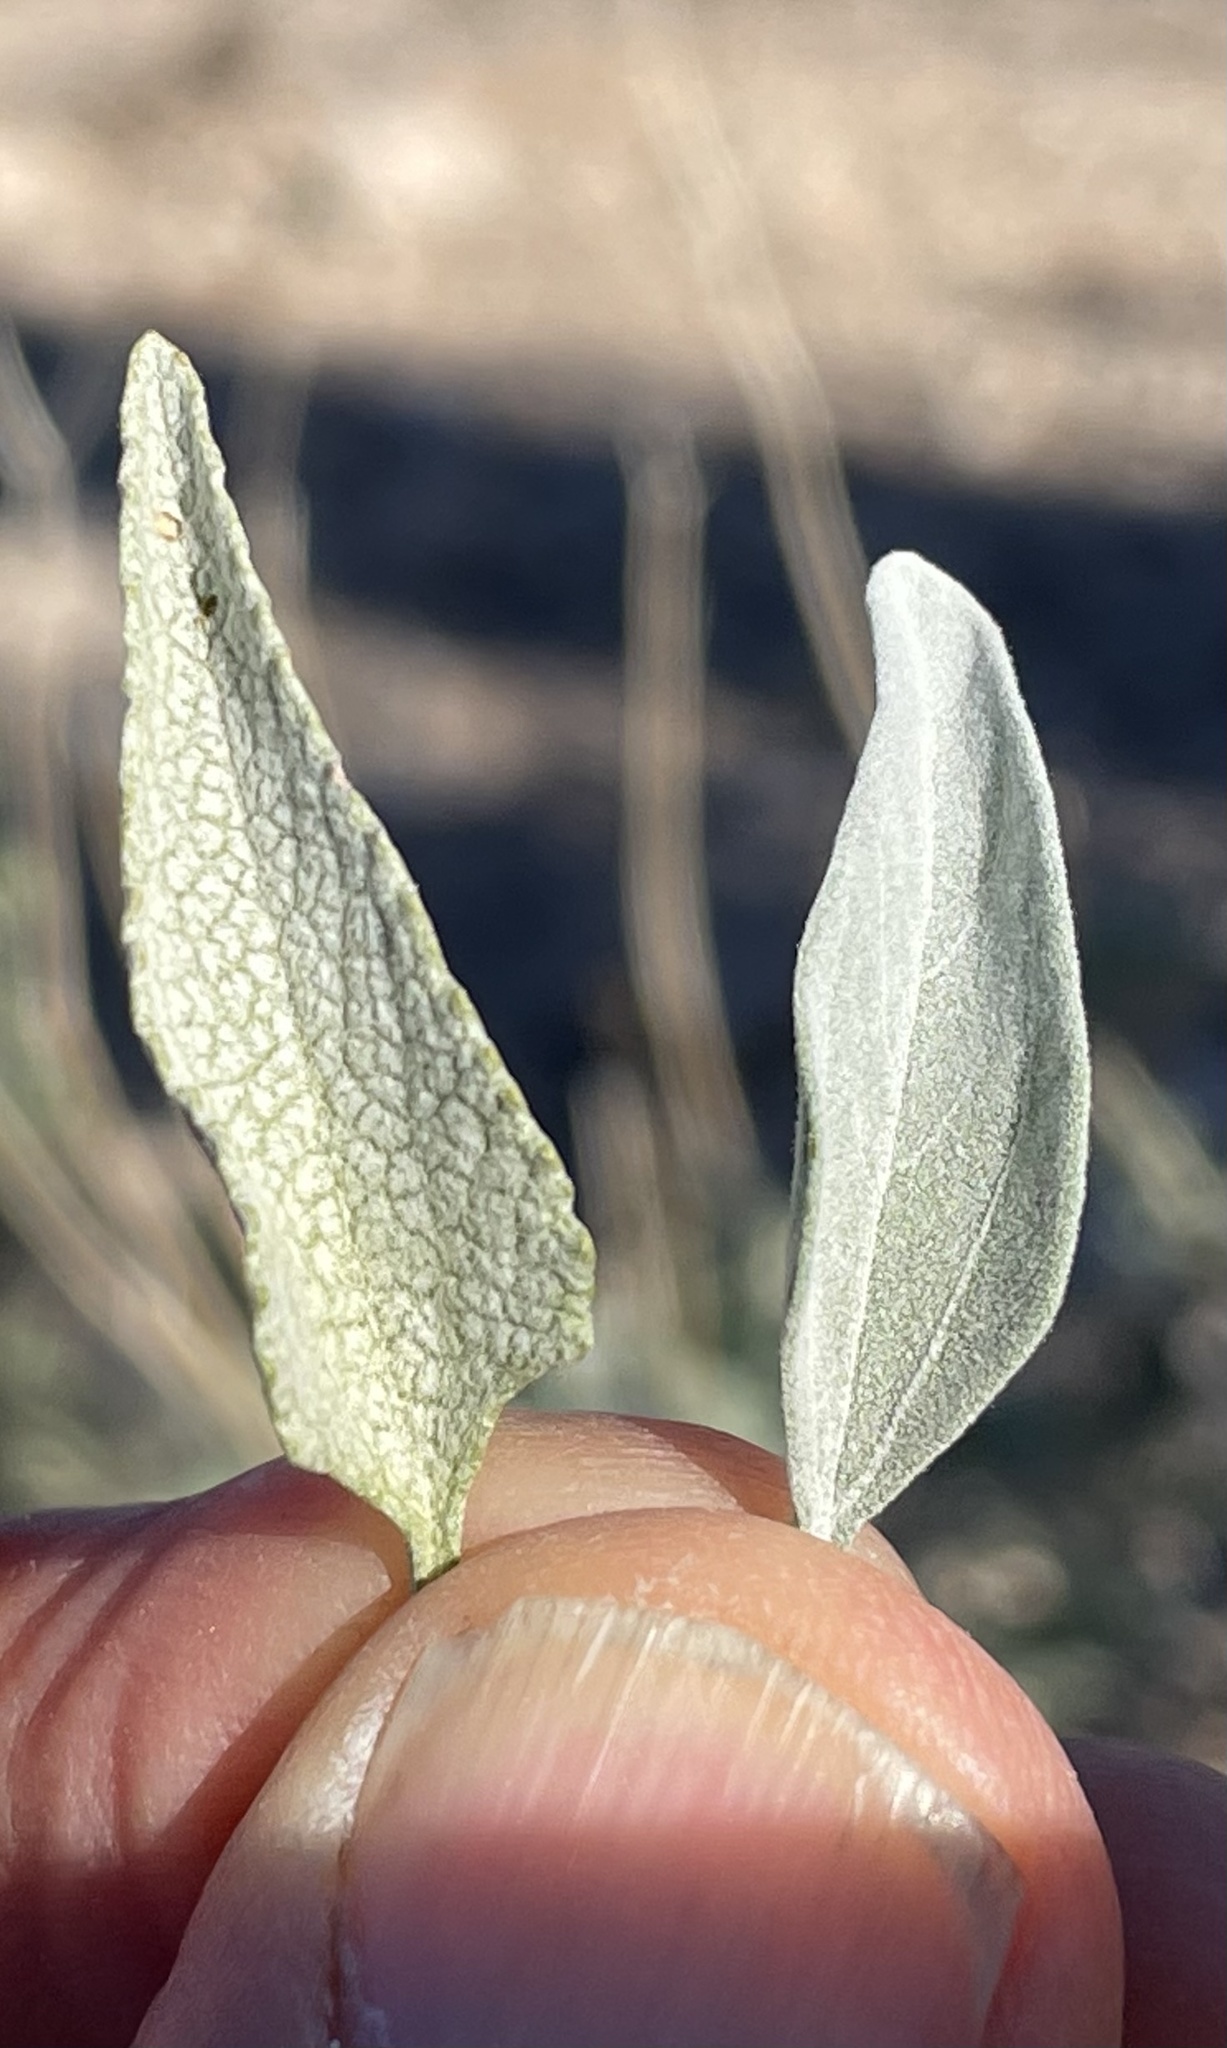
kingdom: Plantae
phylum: Tracheophyta
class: Magnoliopsida
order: Asterales
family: Asteraceae
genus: Encelia
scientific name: Encelia farinosa
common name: Brittlebush
